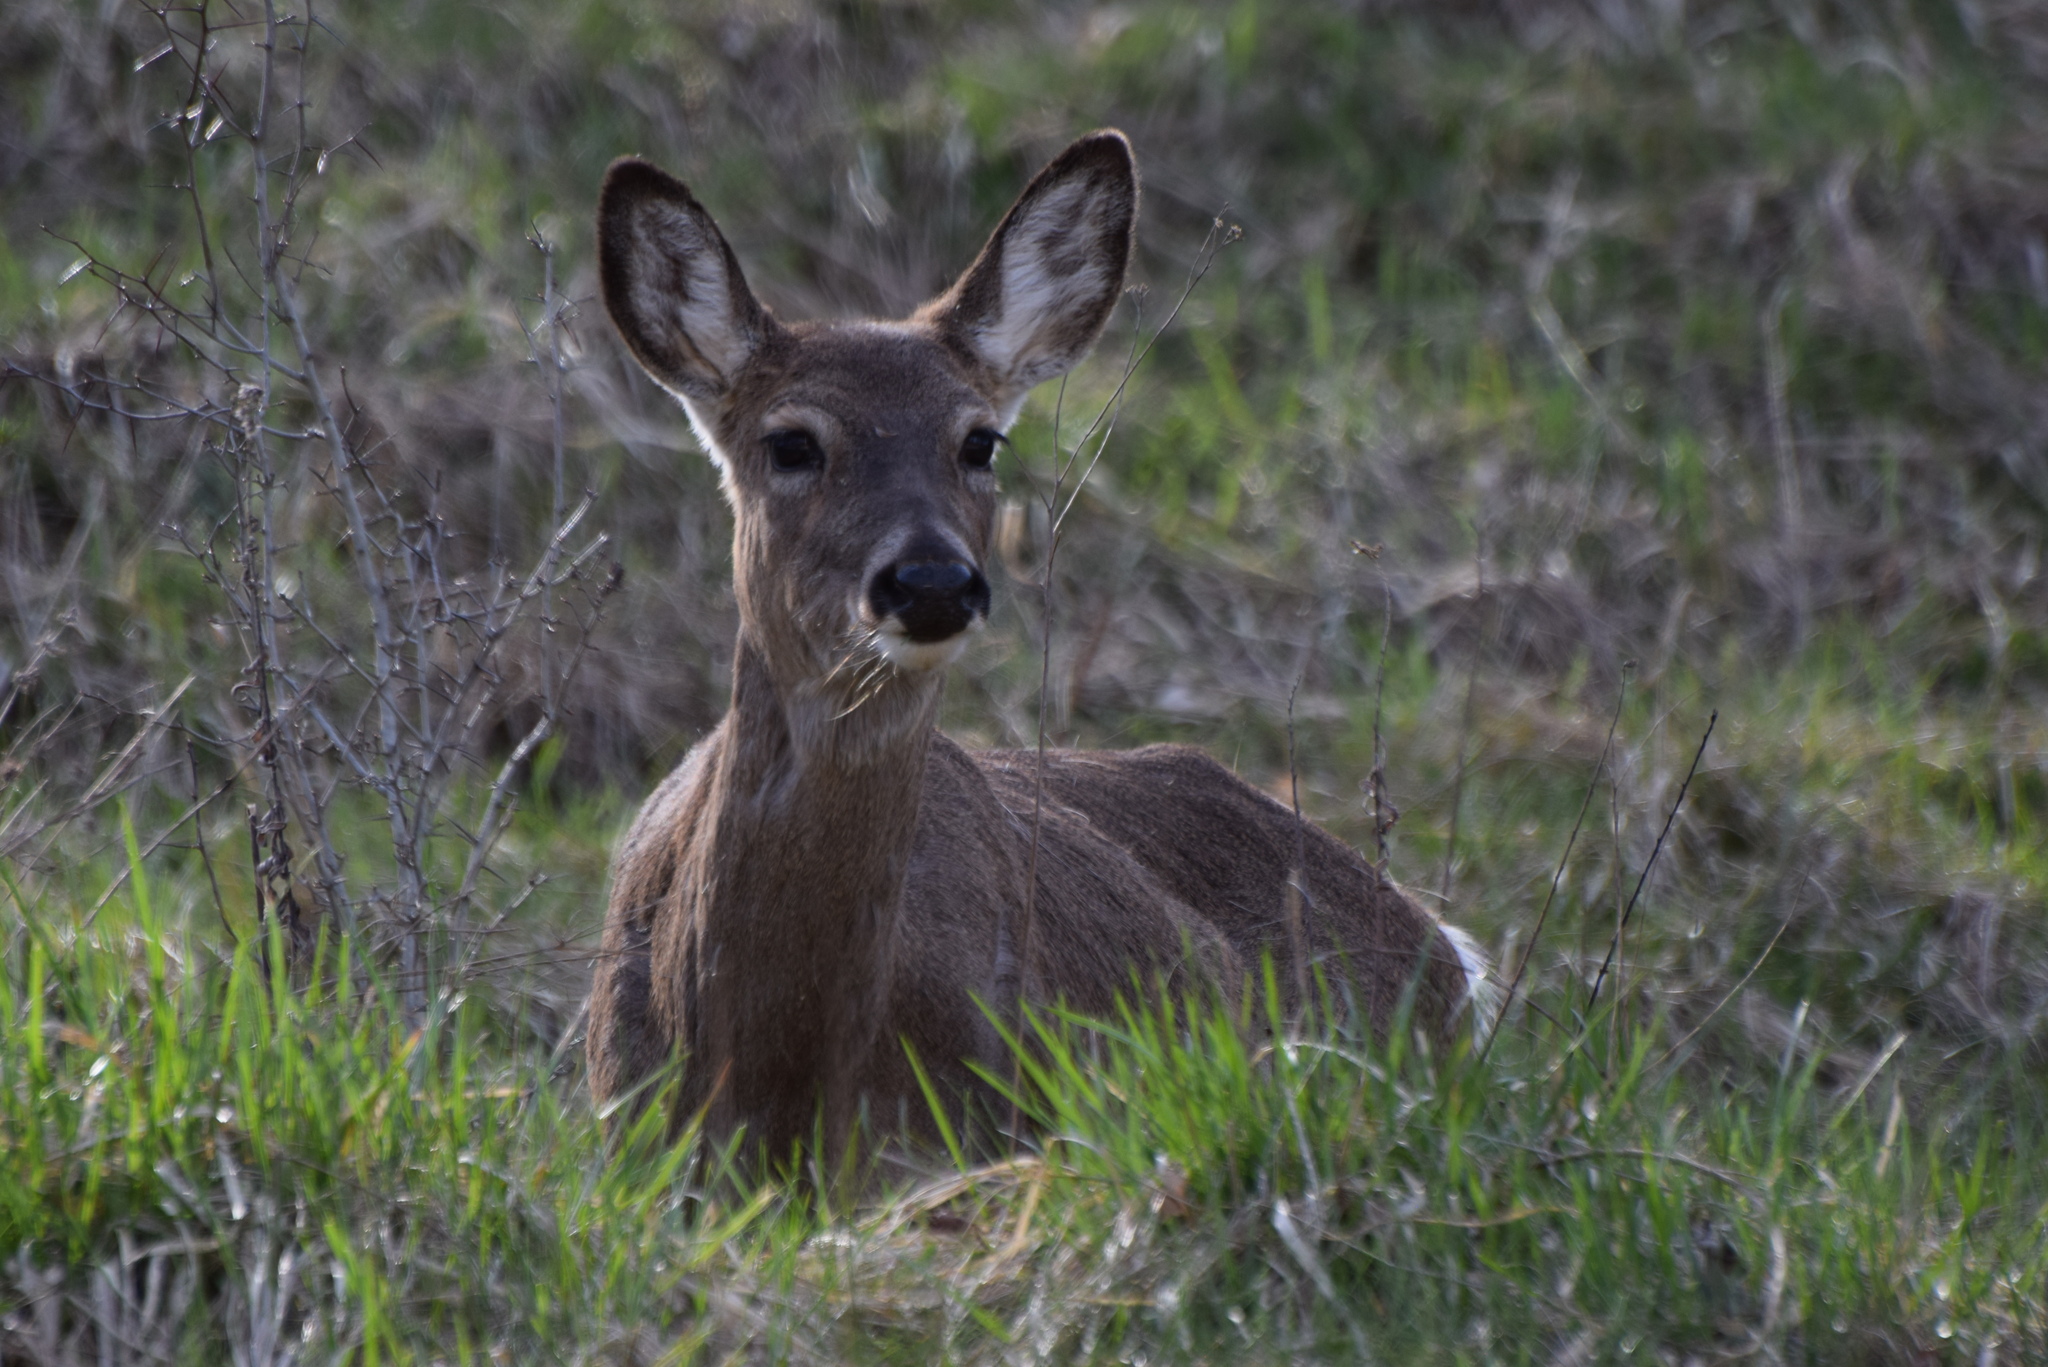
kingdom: Animalia
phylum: Chordata
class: Mammalia
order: Artiodactyla
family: Cervidae
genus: Odocoileus
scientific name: Odocoileus virginianus
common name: White-tailed deer
